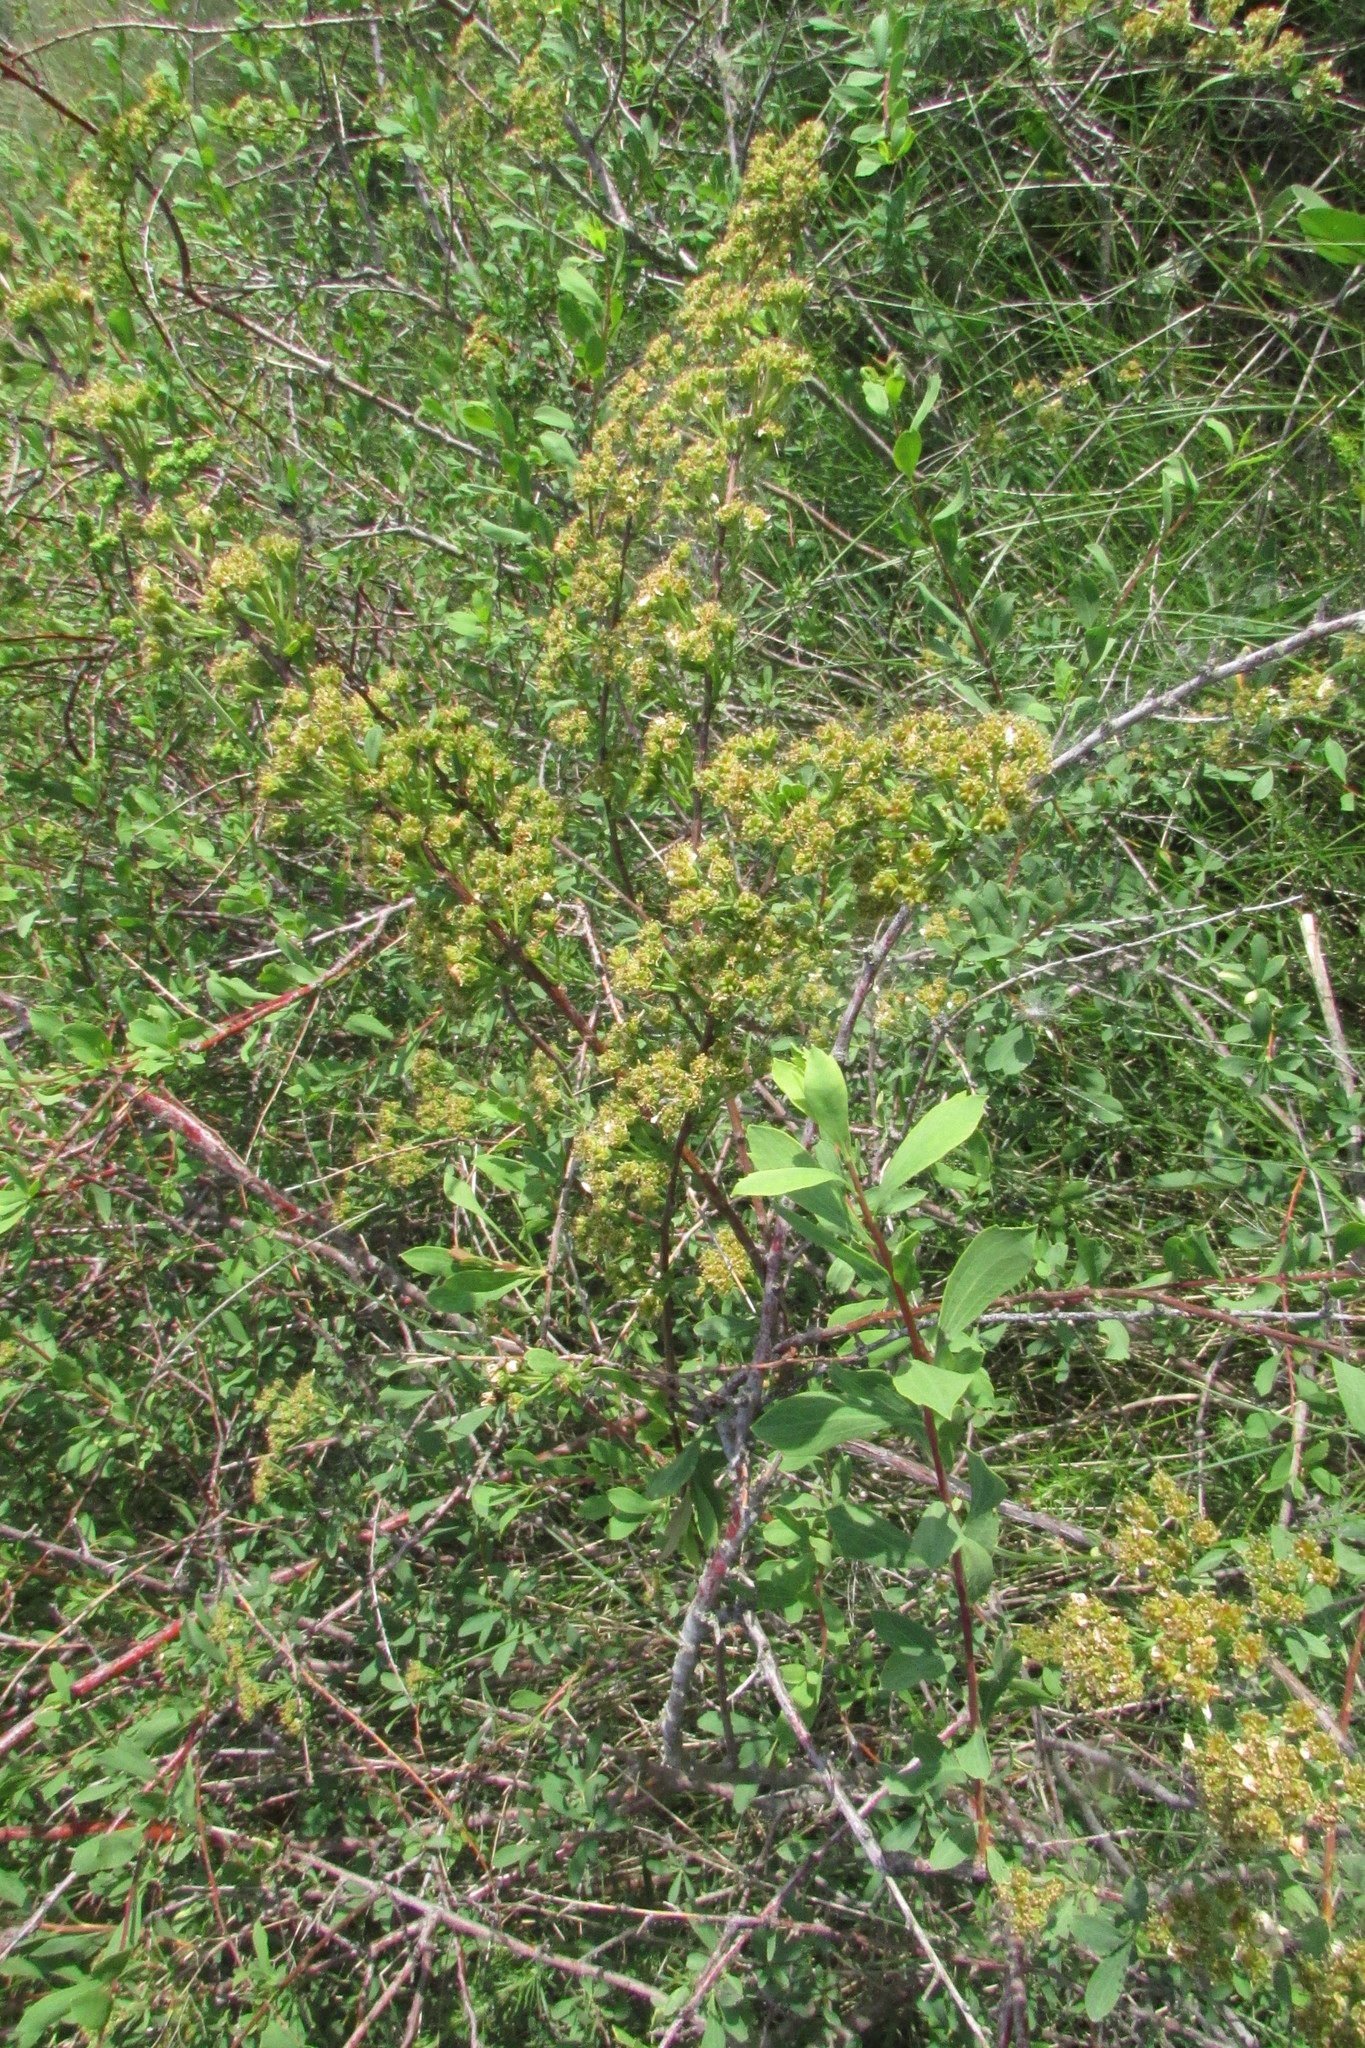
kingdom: Plantae
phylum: Tracheophyta
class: Magnoliopsida
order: Rosales
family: Rosaceae
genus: Spiraea
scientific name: Spiraea crenata
